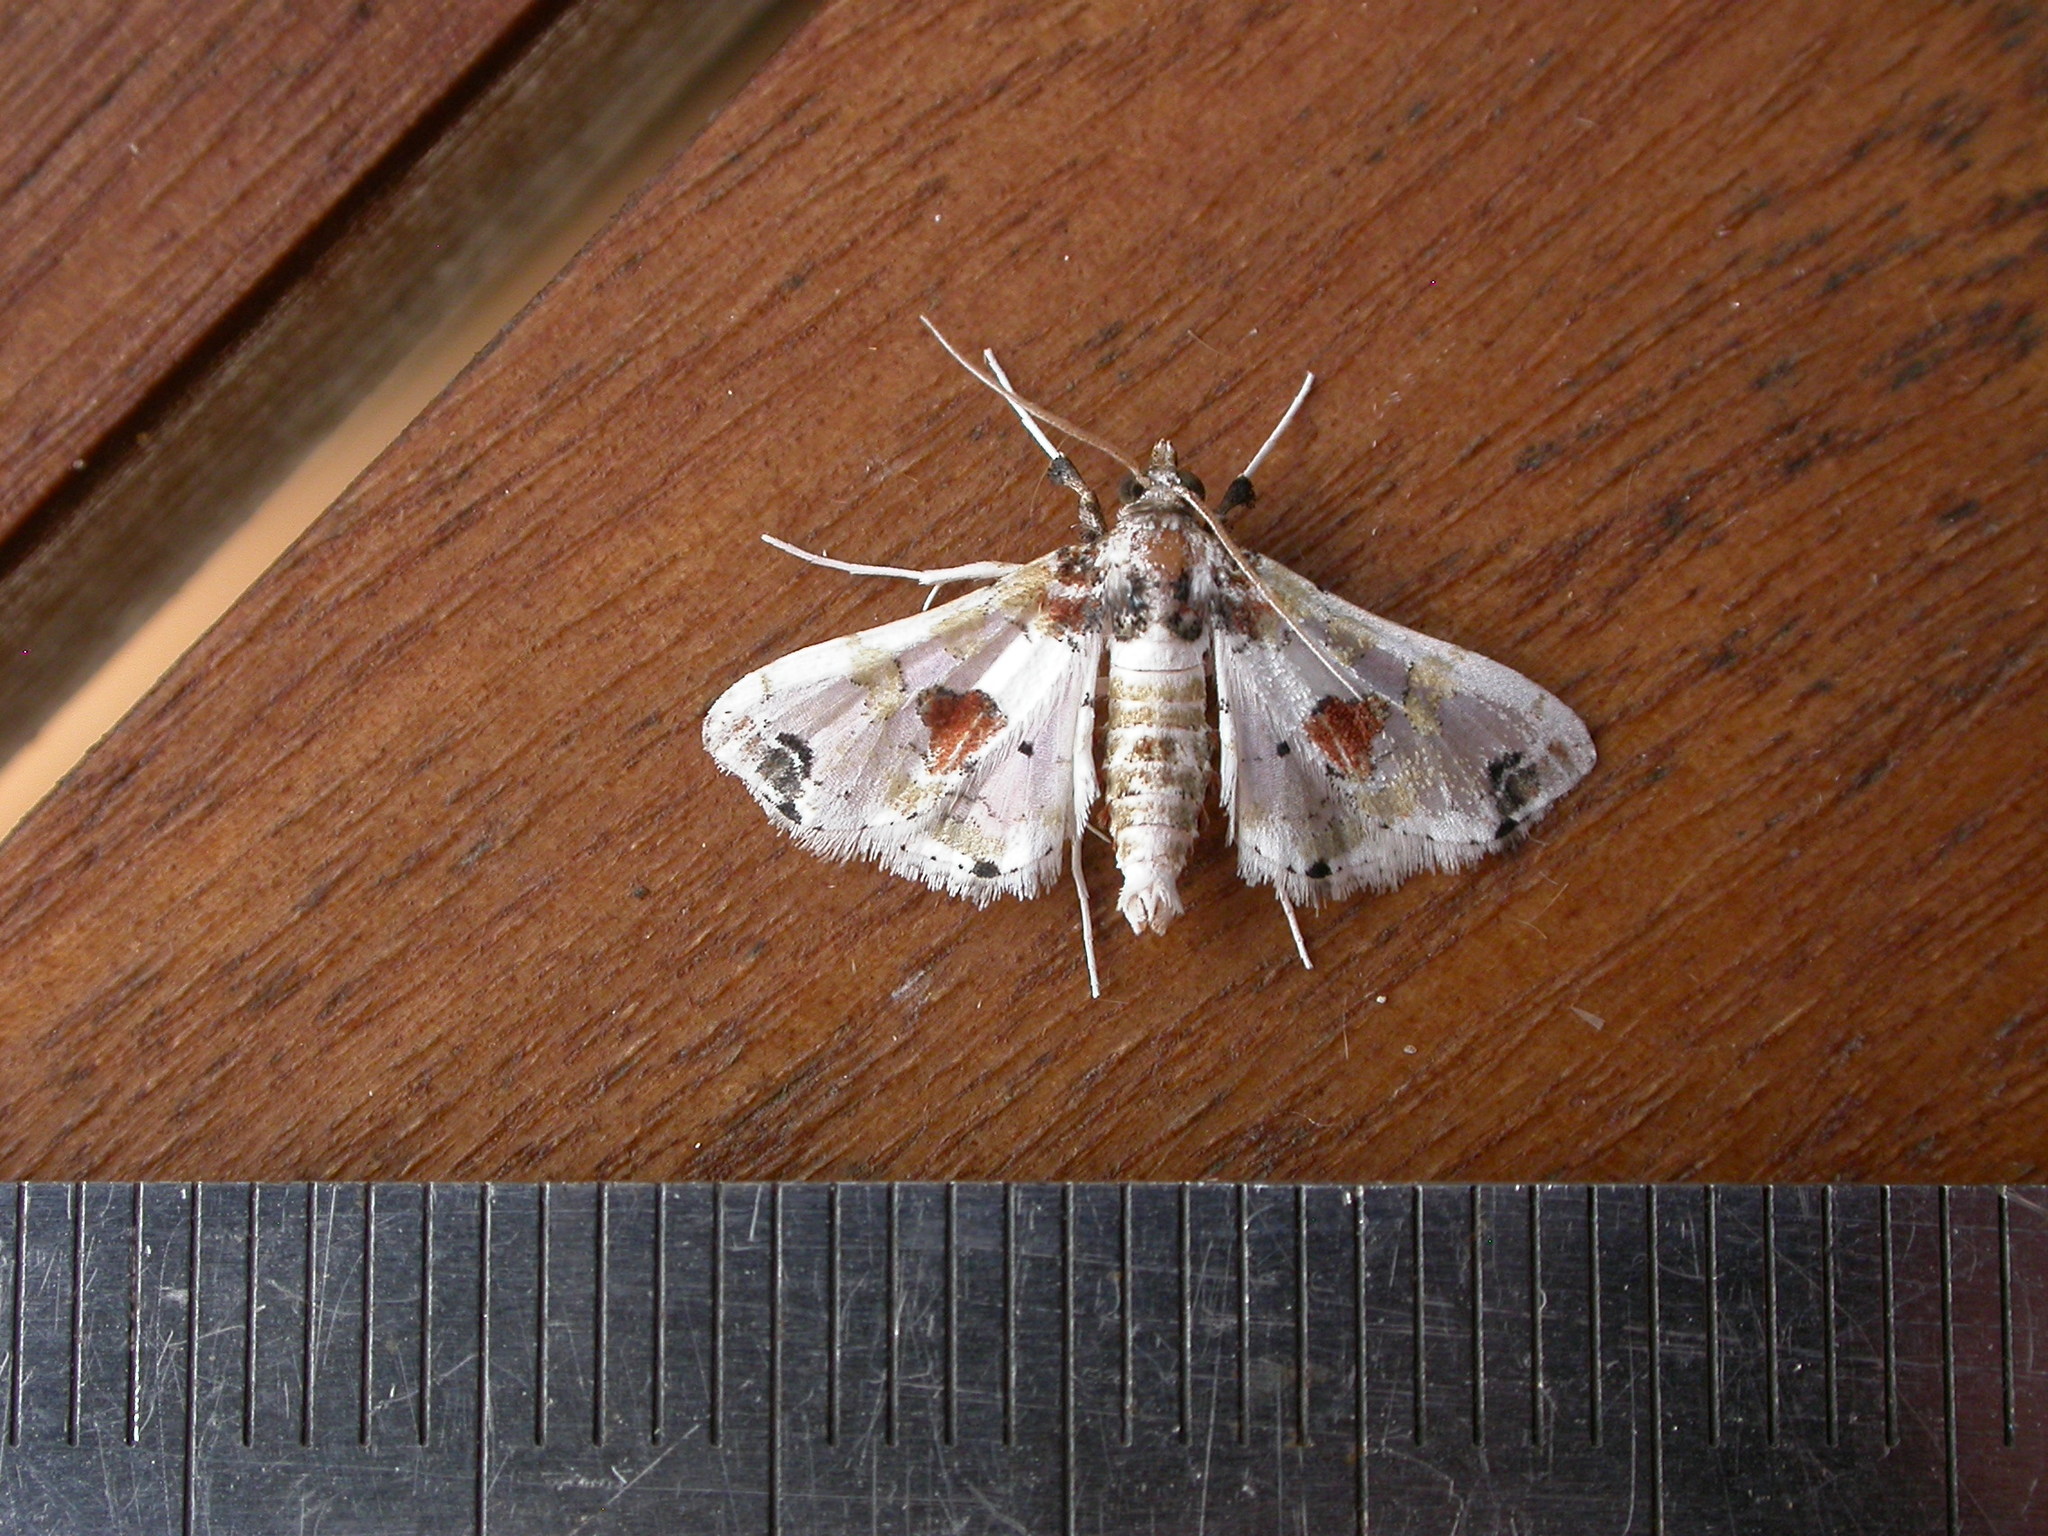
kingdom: Animalia
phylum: Arthropoda
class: Insecta
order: Lepidoptera
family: Crambidae
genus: Leucinodes
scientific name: Leucinodes orbonalis
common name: Aubergine pearl
